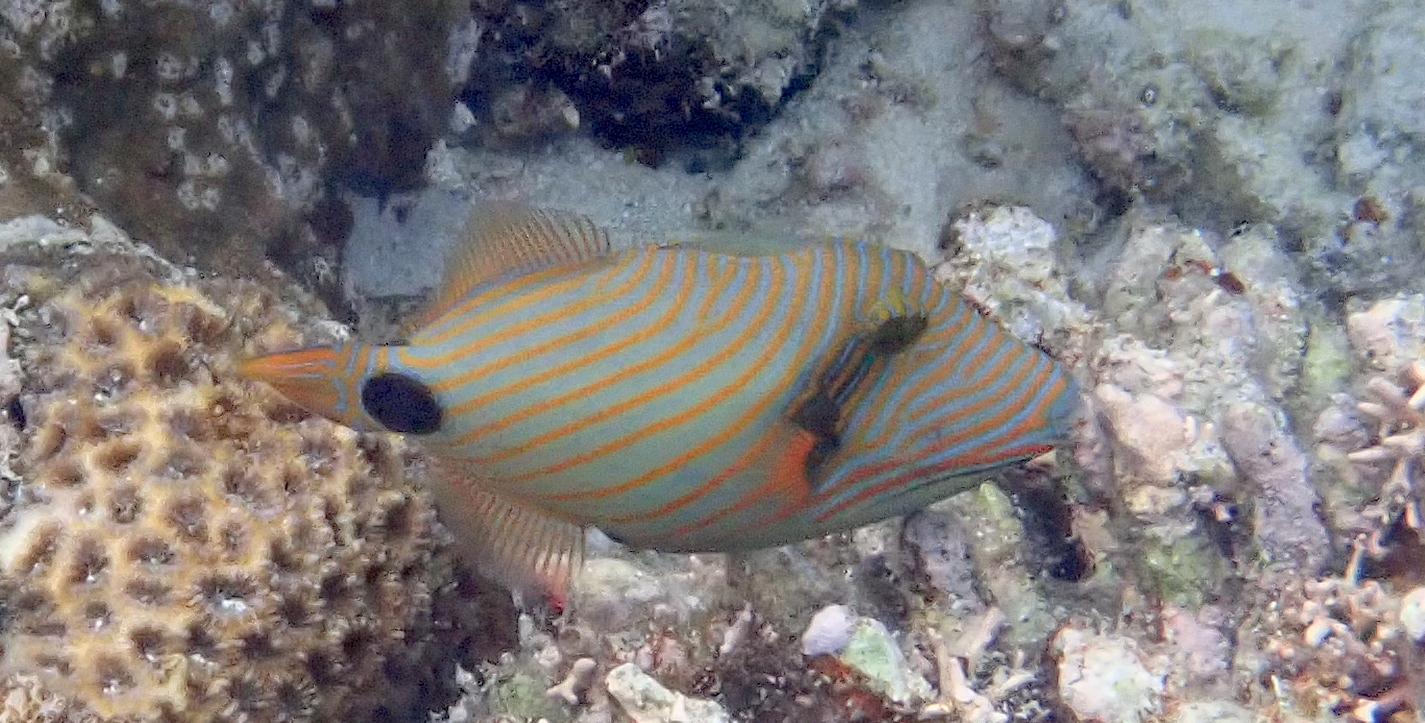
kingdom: Animalia
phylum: Chordata
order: Tetraodontiformes
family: Balistidae
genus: Balistapus
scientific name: Balistapus undulatus
